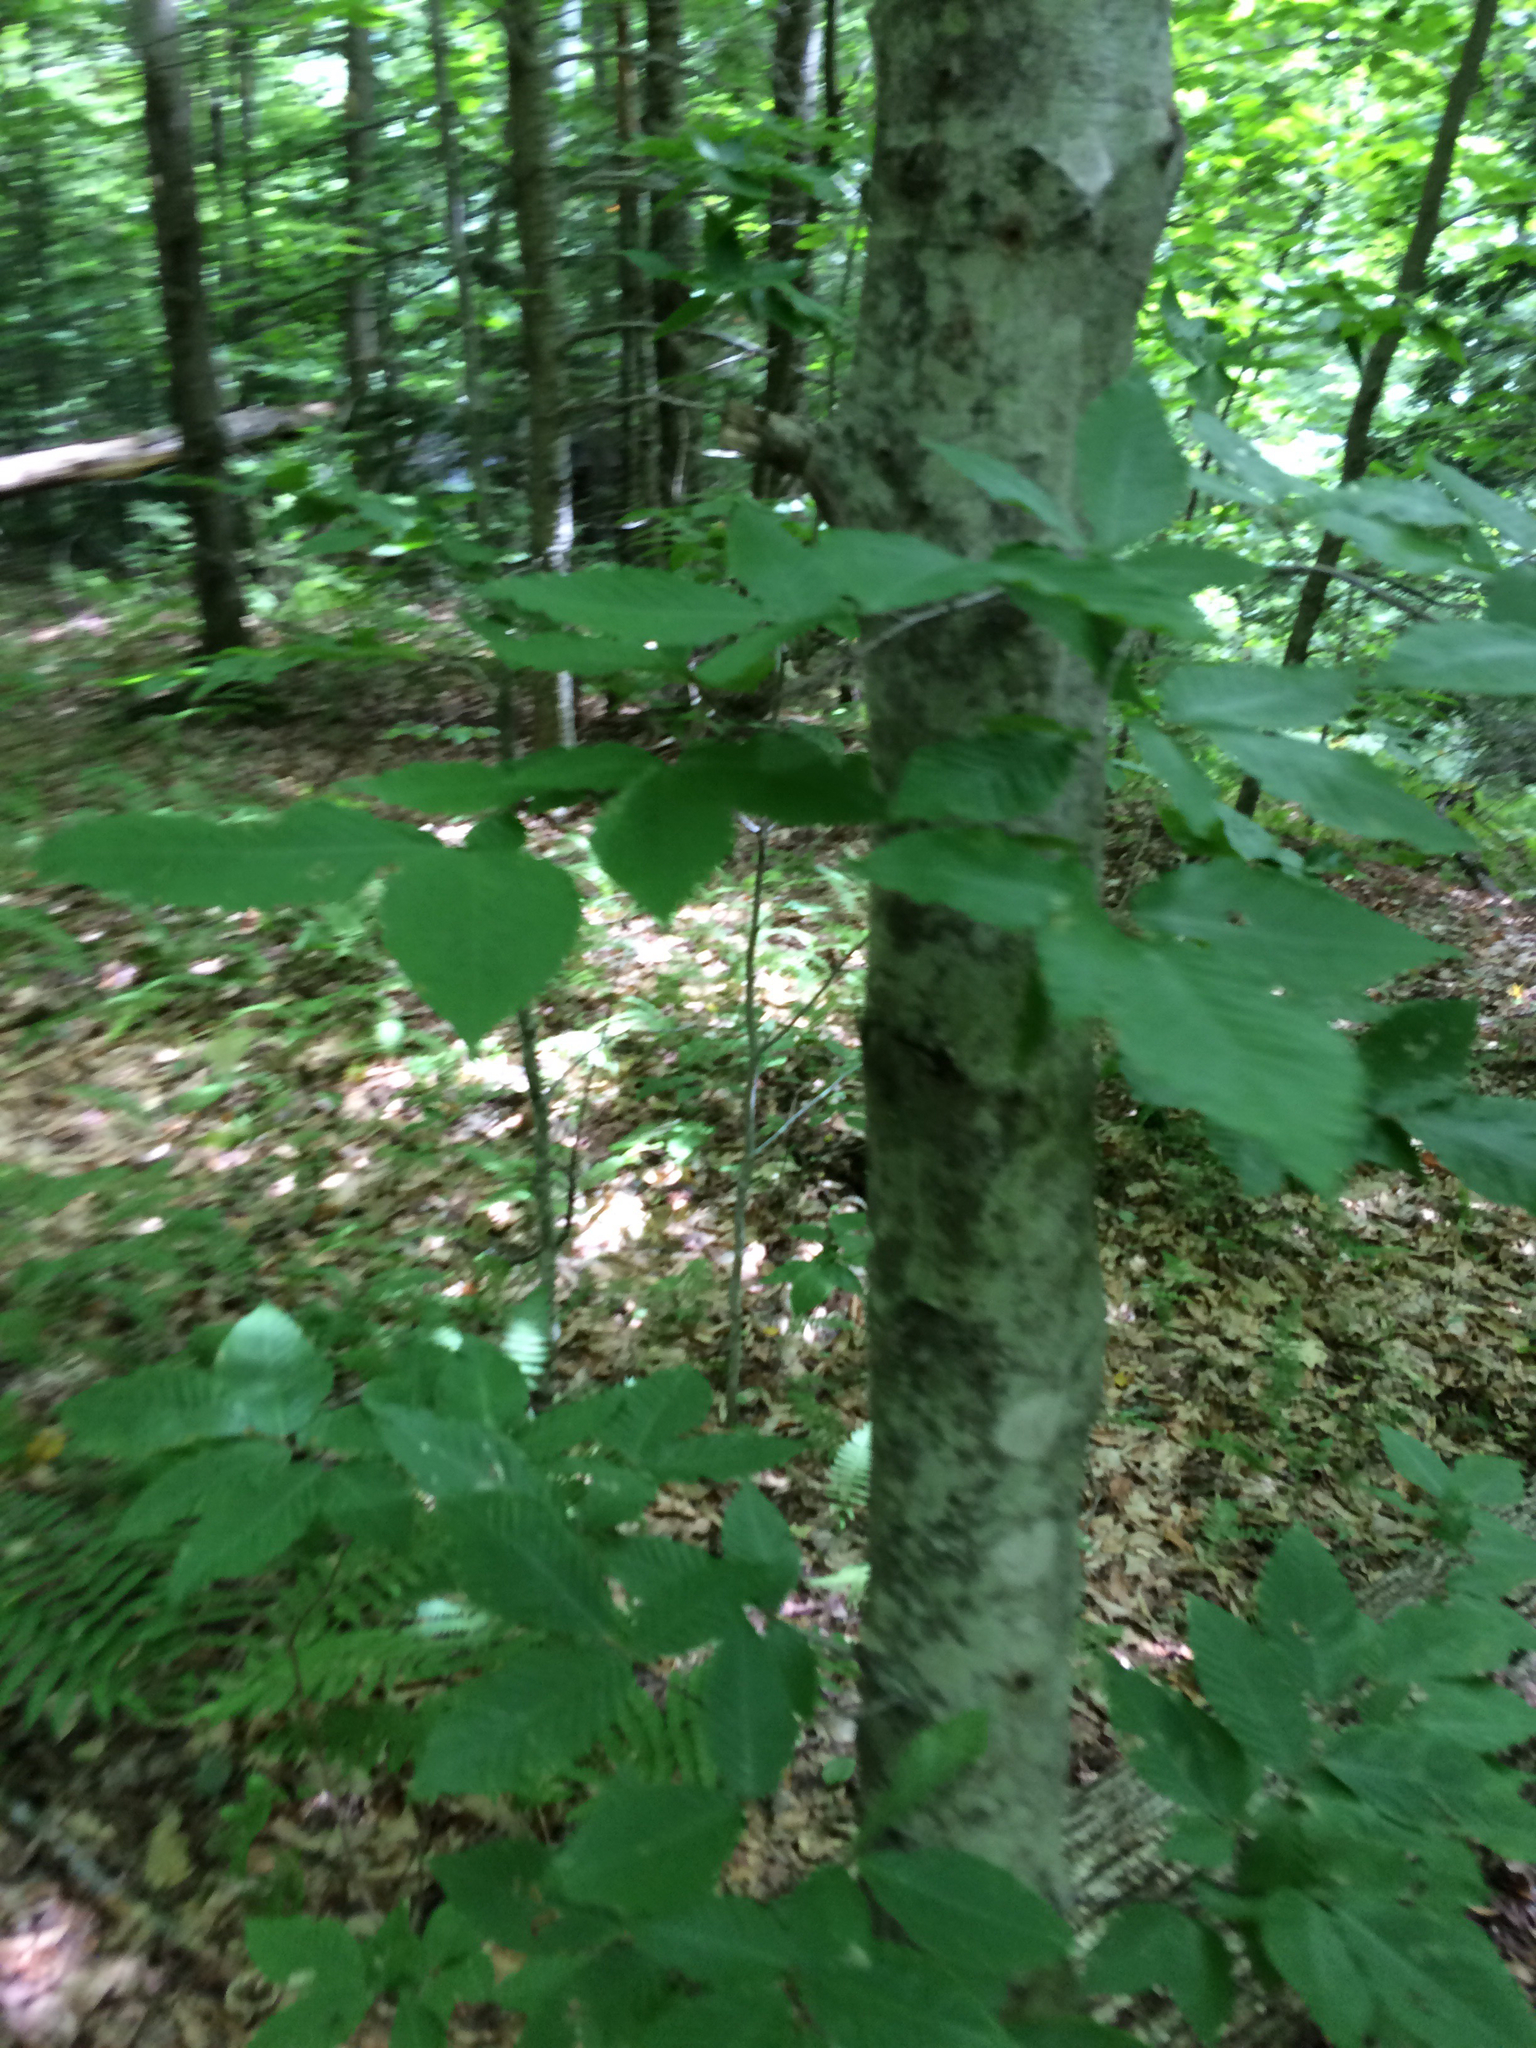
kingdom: Plantae
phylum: Tracheophyta
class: Magnoliopsida
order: Fagales
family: Fagaceae
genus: Fagus
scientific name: Fagus grandifolia
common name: American beech
